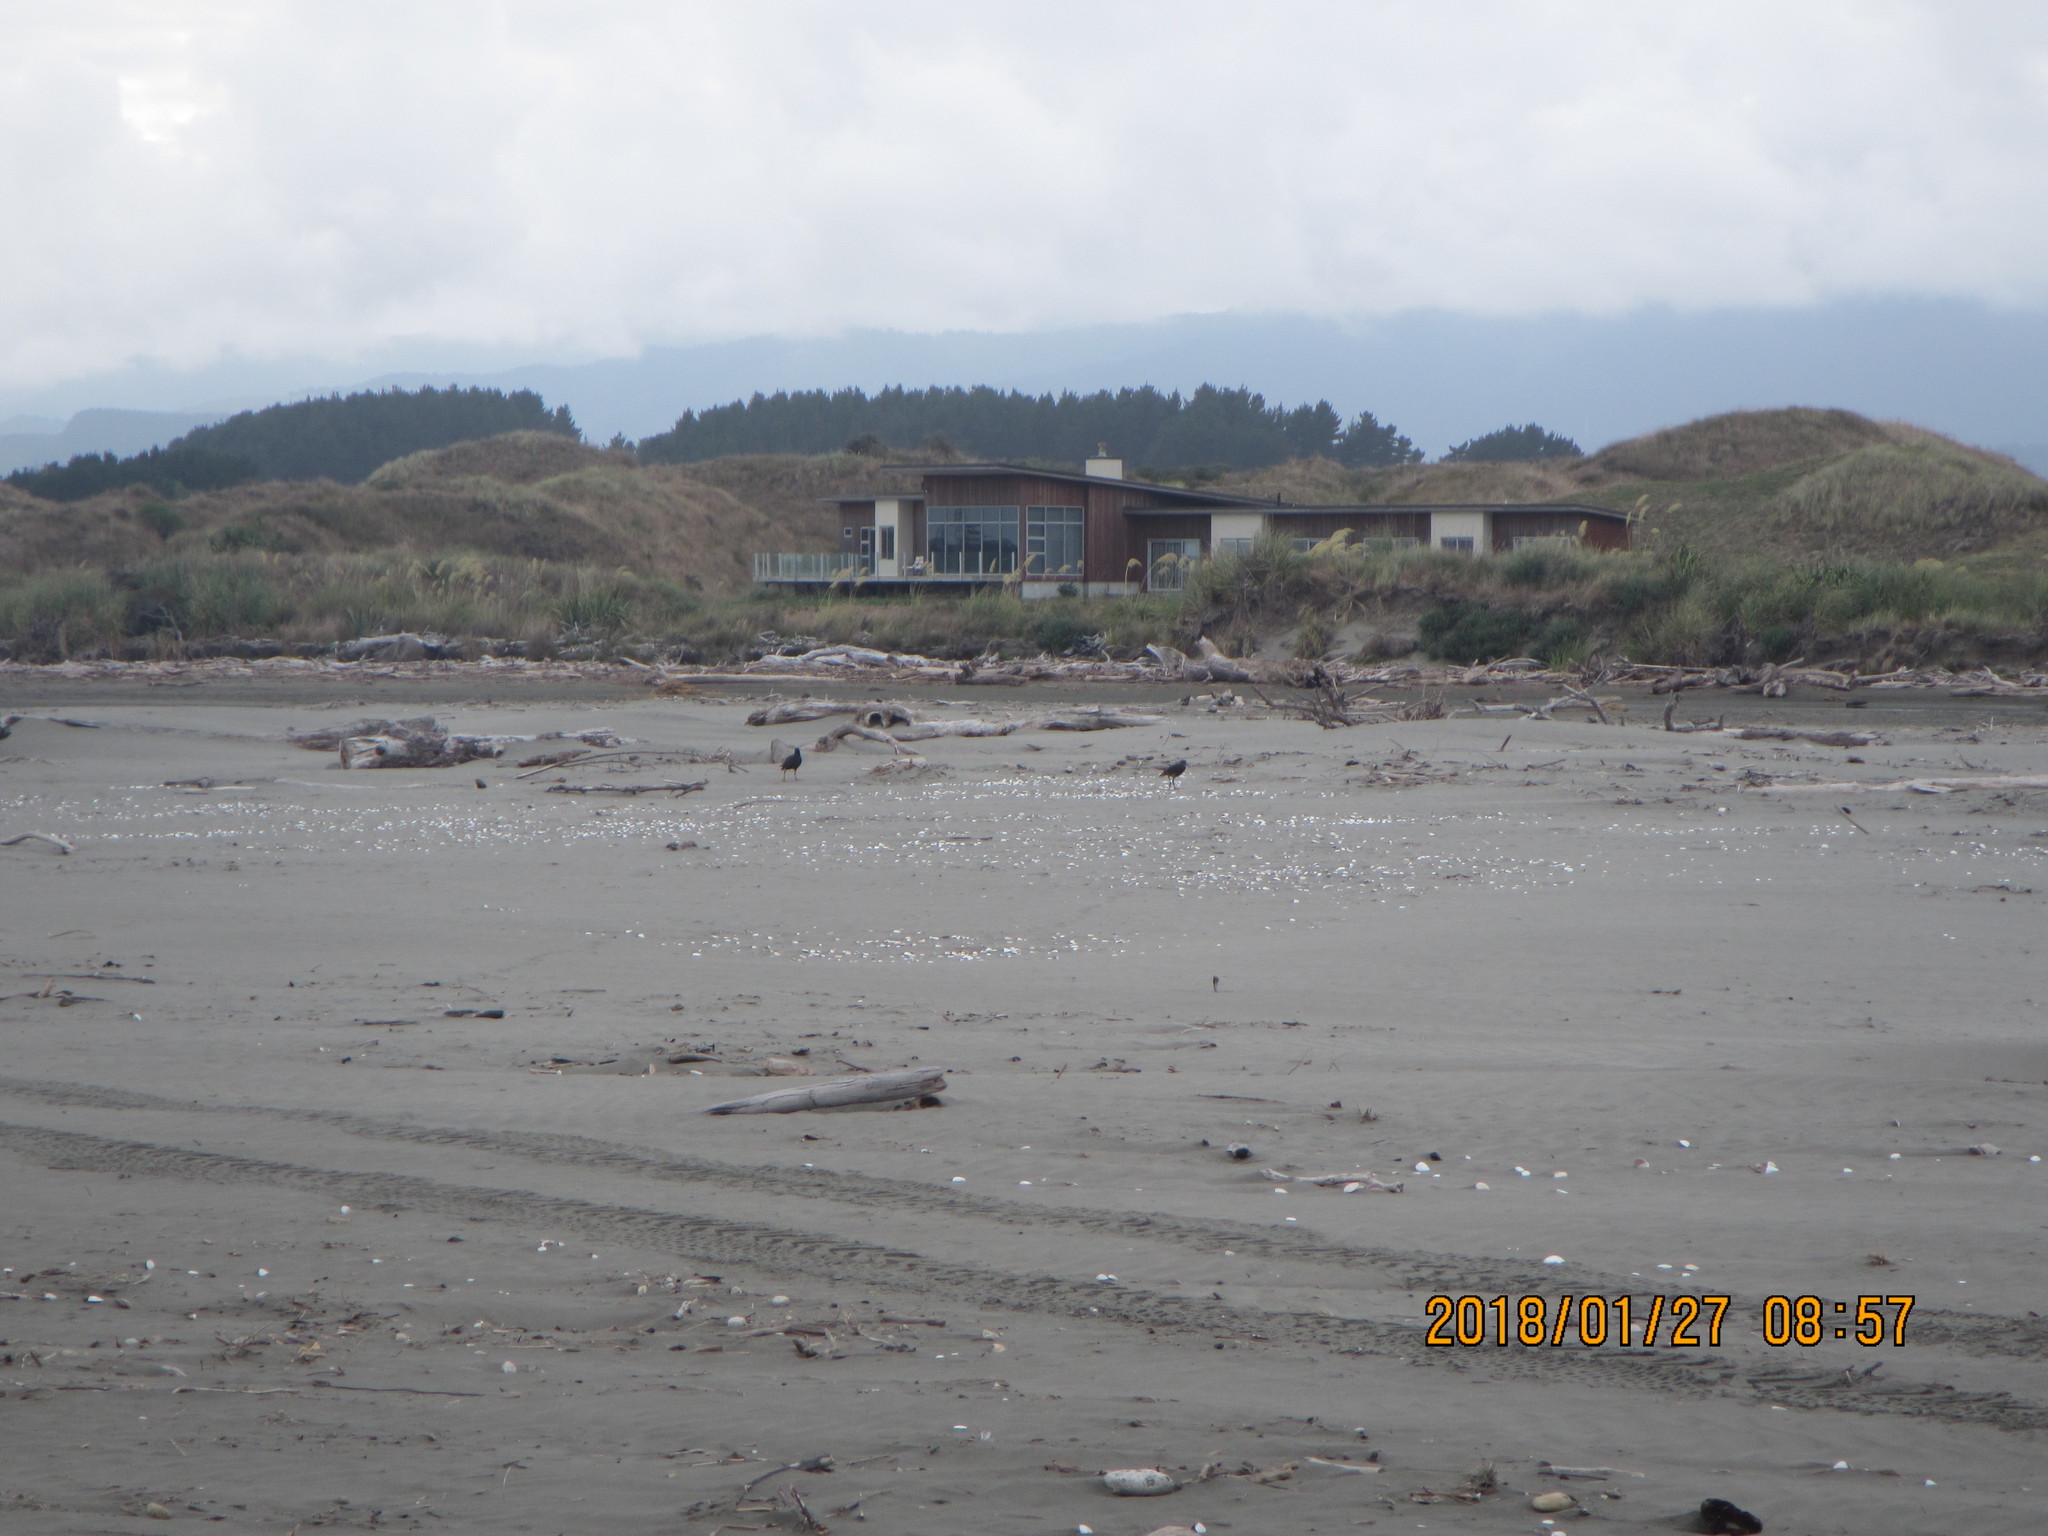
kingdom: Animalia
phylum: Chordata
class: Aves
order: Charadriiformes
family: Haematopodidae
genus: Haematopus
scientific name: Haematopus unicolor
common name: Variable oystercatcher
